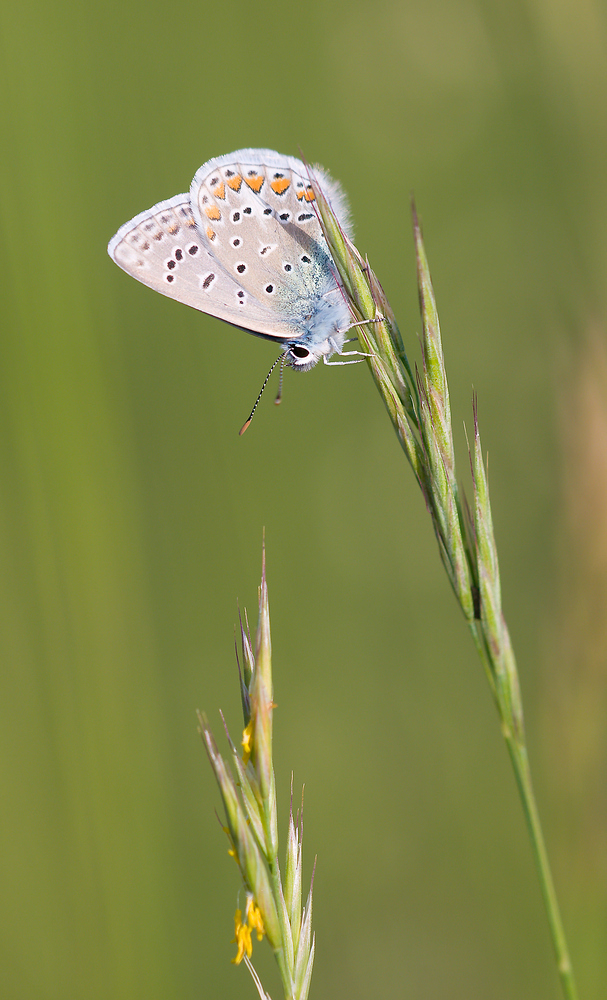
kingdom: Animalia
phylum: Arthropoda
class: Insecta
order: Lepidoptera
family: Lycaenidae
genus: Polyommatus
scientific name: Polyommatus icarus
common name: Common blue
